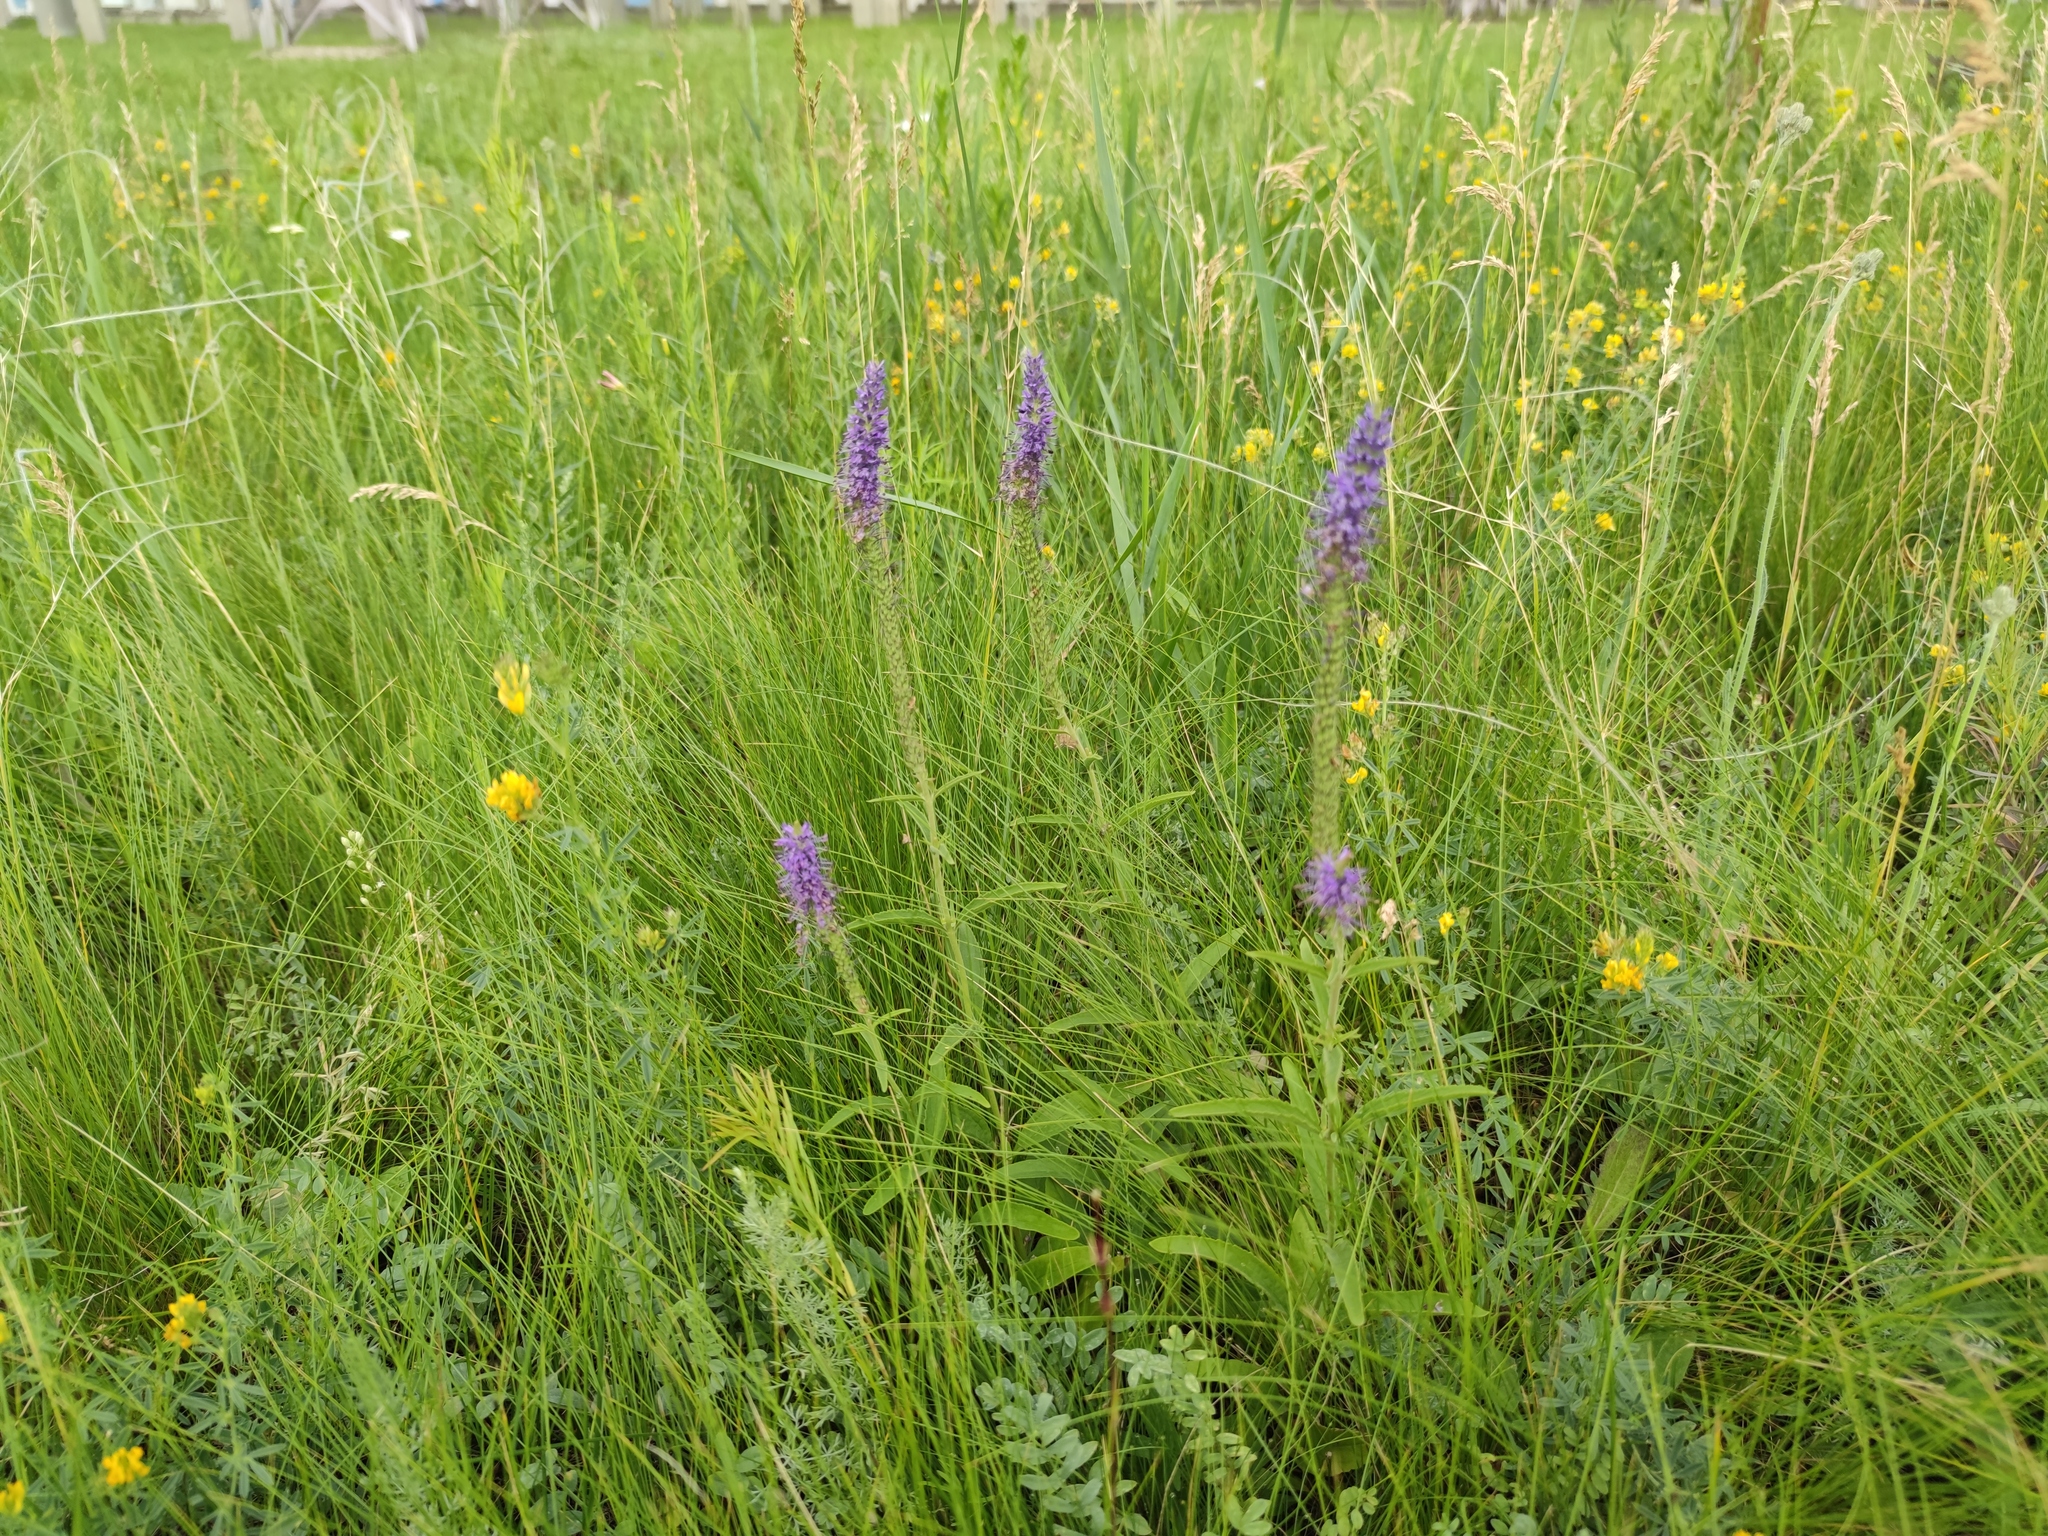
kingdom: Plantae
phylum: Tracheophyta
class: Magnoliopsida
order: Lamiales
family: Plantaginaceae
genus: Veronica
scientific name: Veronica spicata
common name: Spiked speedwell
